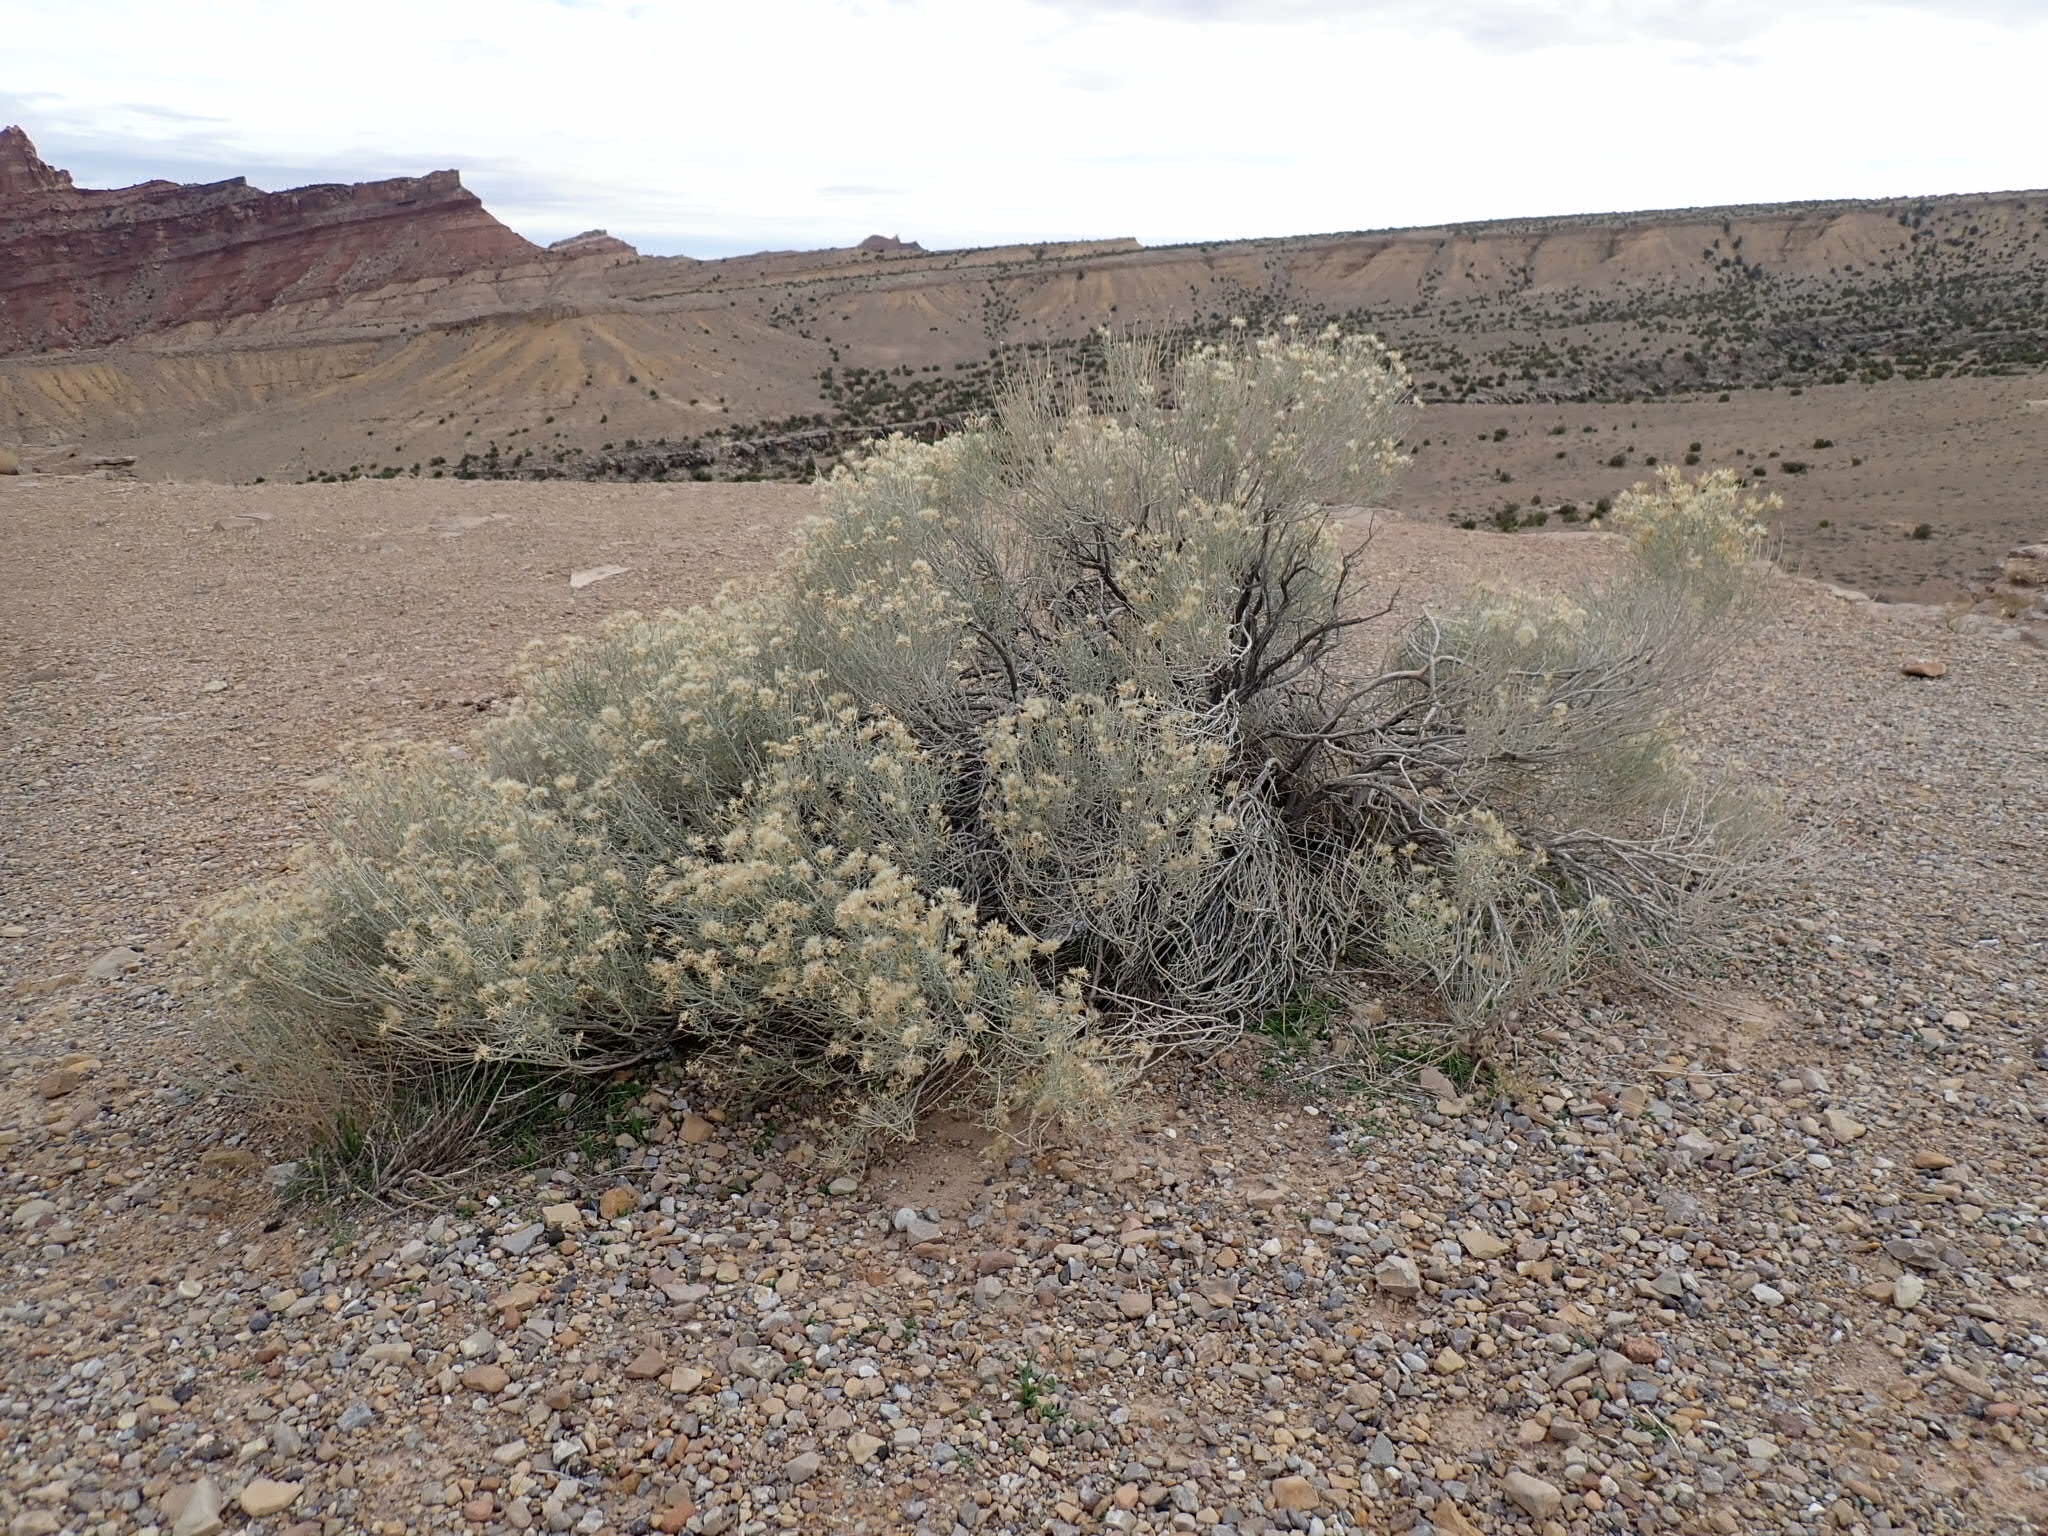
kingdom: Plantae
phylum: Tracheophyta
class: Magnoliopsida
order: Asterales
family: Asteraceae
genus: Ericameria
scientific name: Ericameria nauseosa
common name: Rubber rabbitbrush
